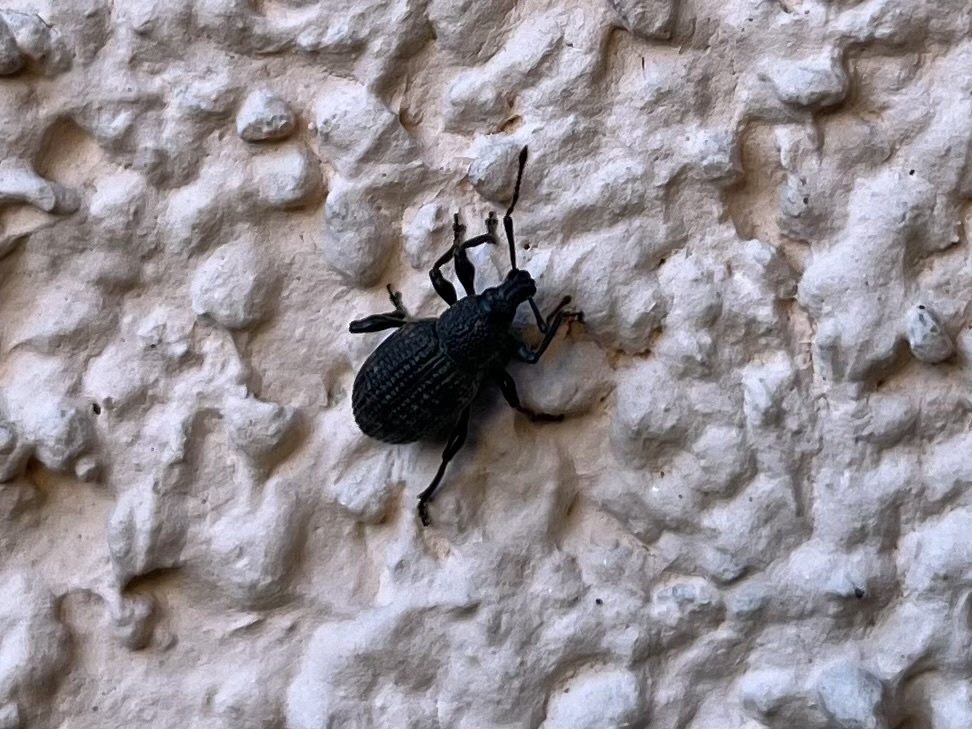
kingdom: Animalia
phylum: Arthropoda
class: Insecta
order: Coleoptera
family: Curculionidae
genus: Otiorhynchus
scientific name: Otiorhynchus sulcatus
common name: Black vine weevil
